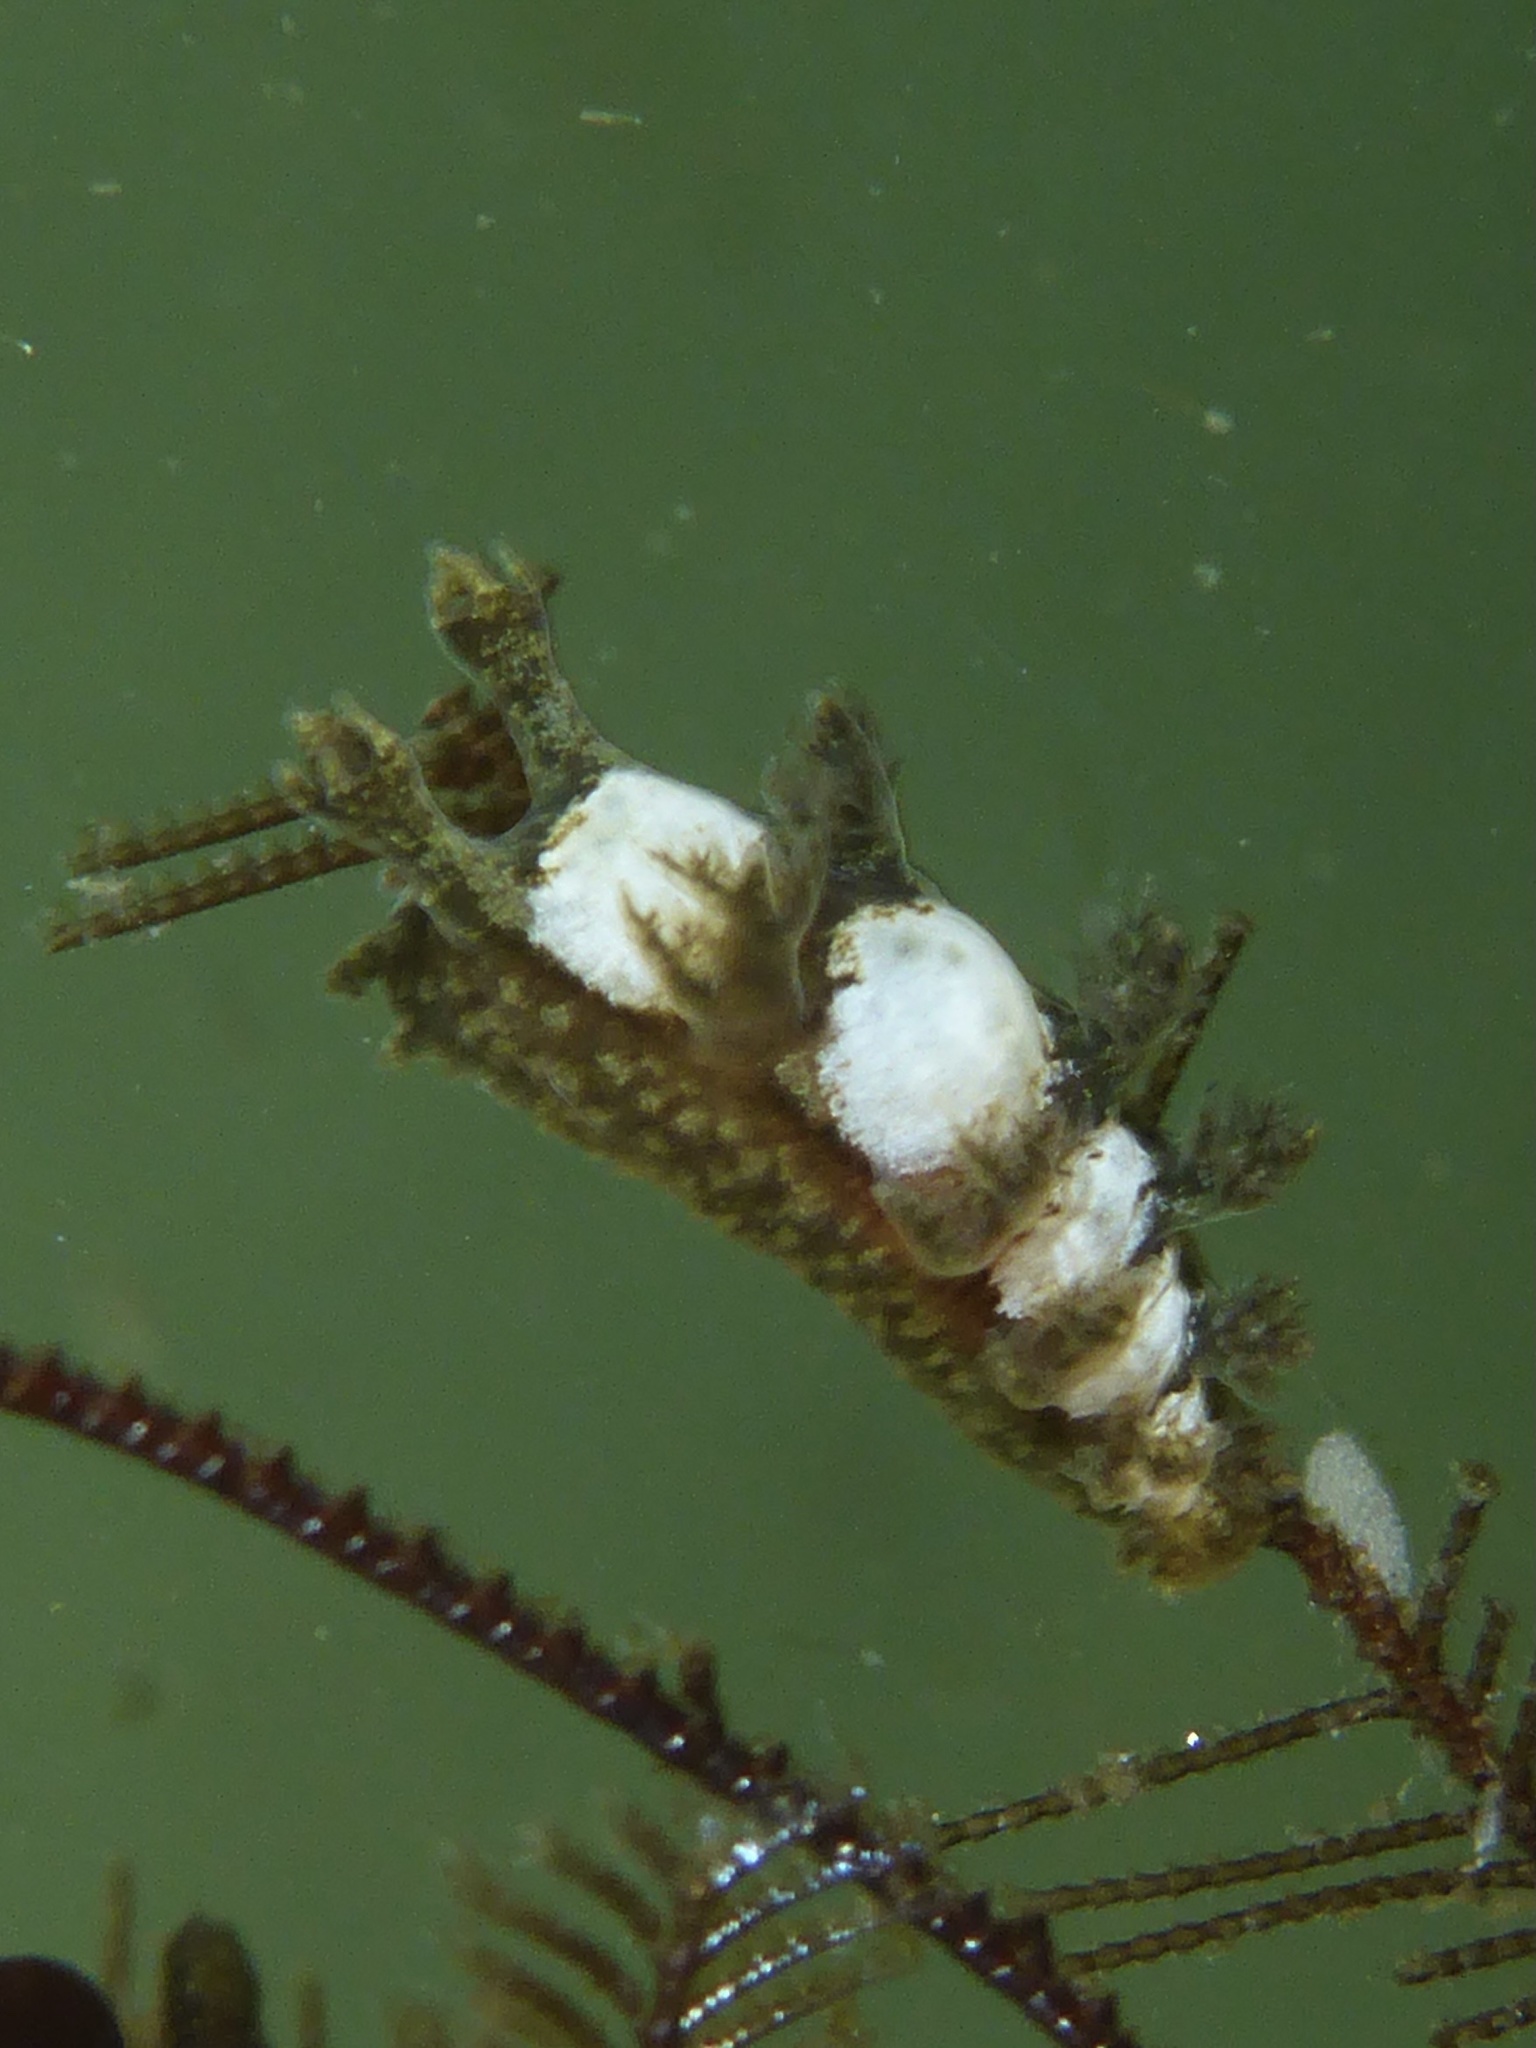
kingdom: Animalia
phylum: Mollusca
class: Gastropoda
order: Nudibranchia
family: Dendronotidae
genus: Dendronotus
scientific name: Dendronotus subramosus
